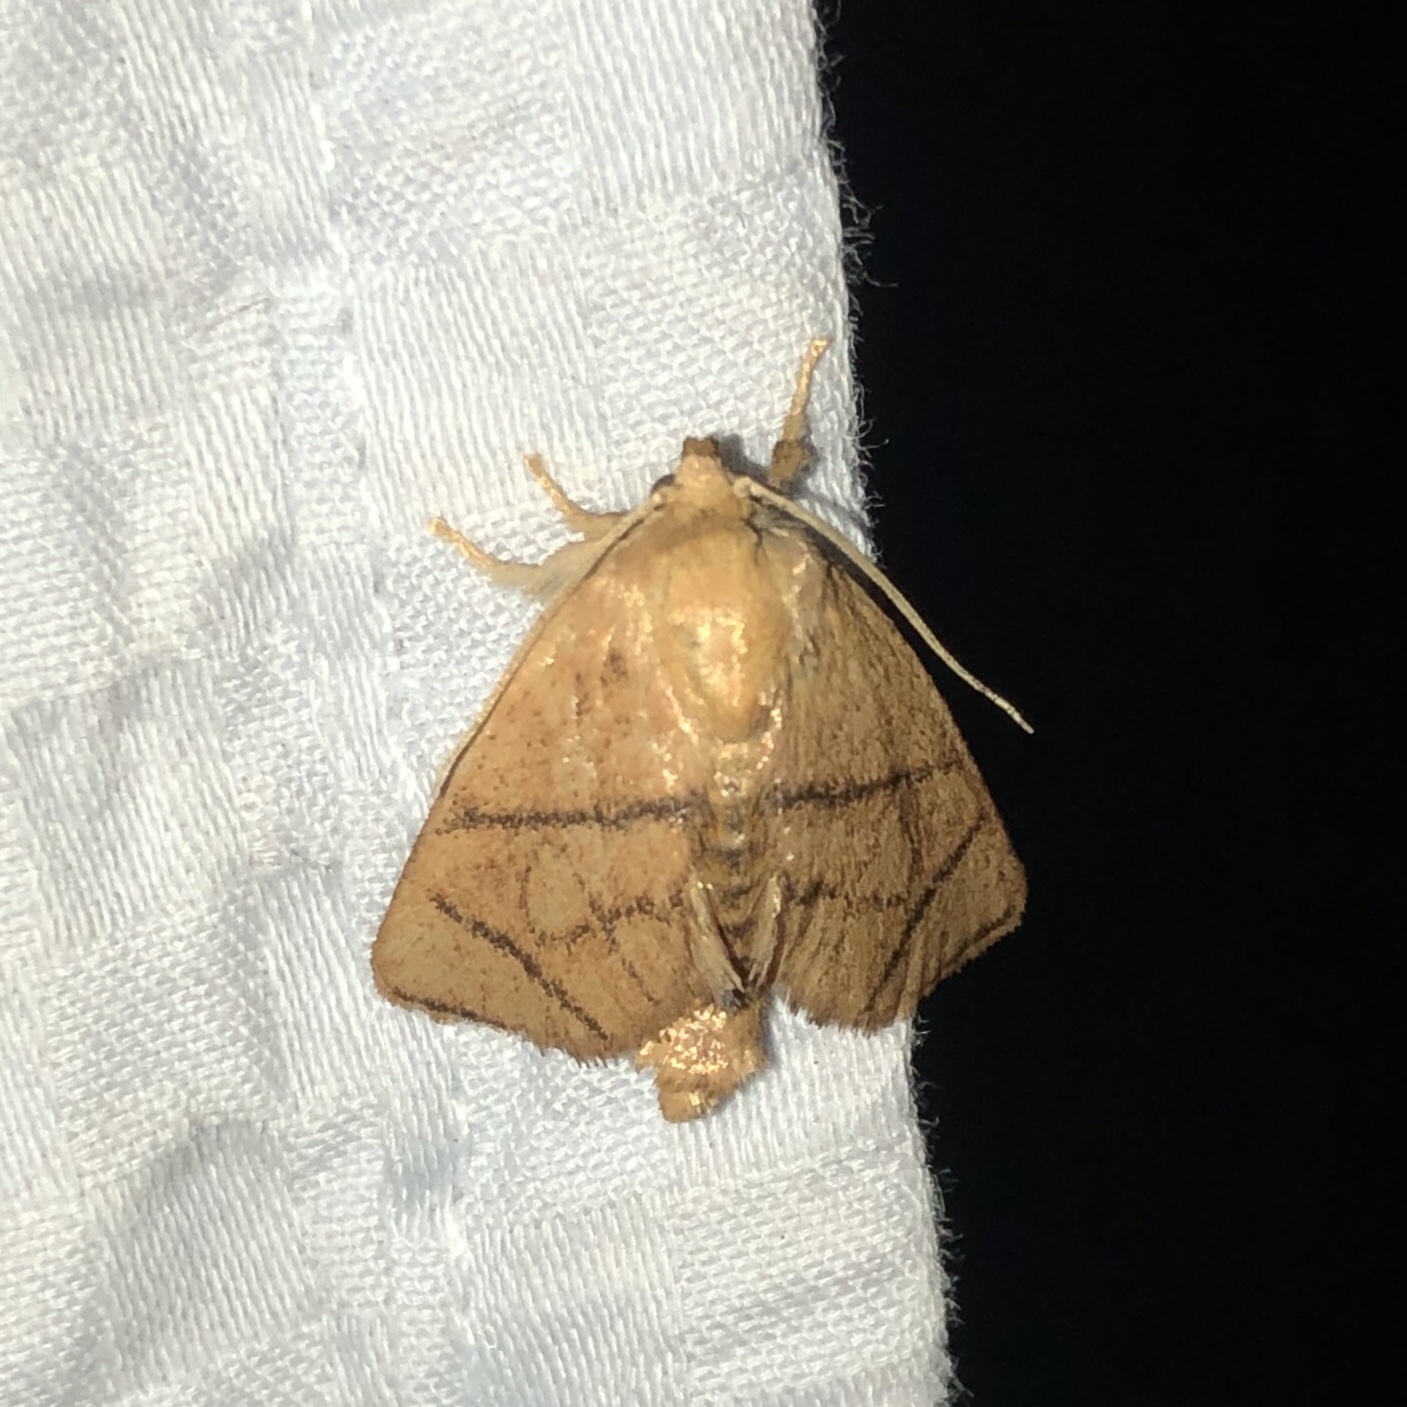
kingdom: Animalia
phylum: Arthropoda
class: Insecta
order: Lepidoptera
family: Limacodidae
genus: Apoda
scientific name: Apoda y-inversa
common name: Yellow-collared slug moth
